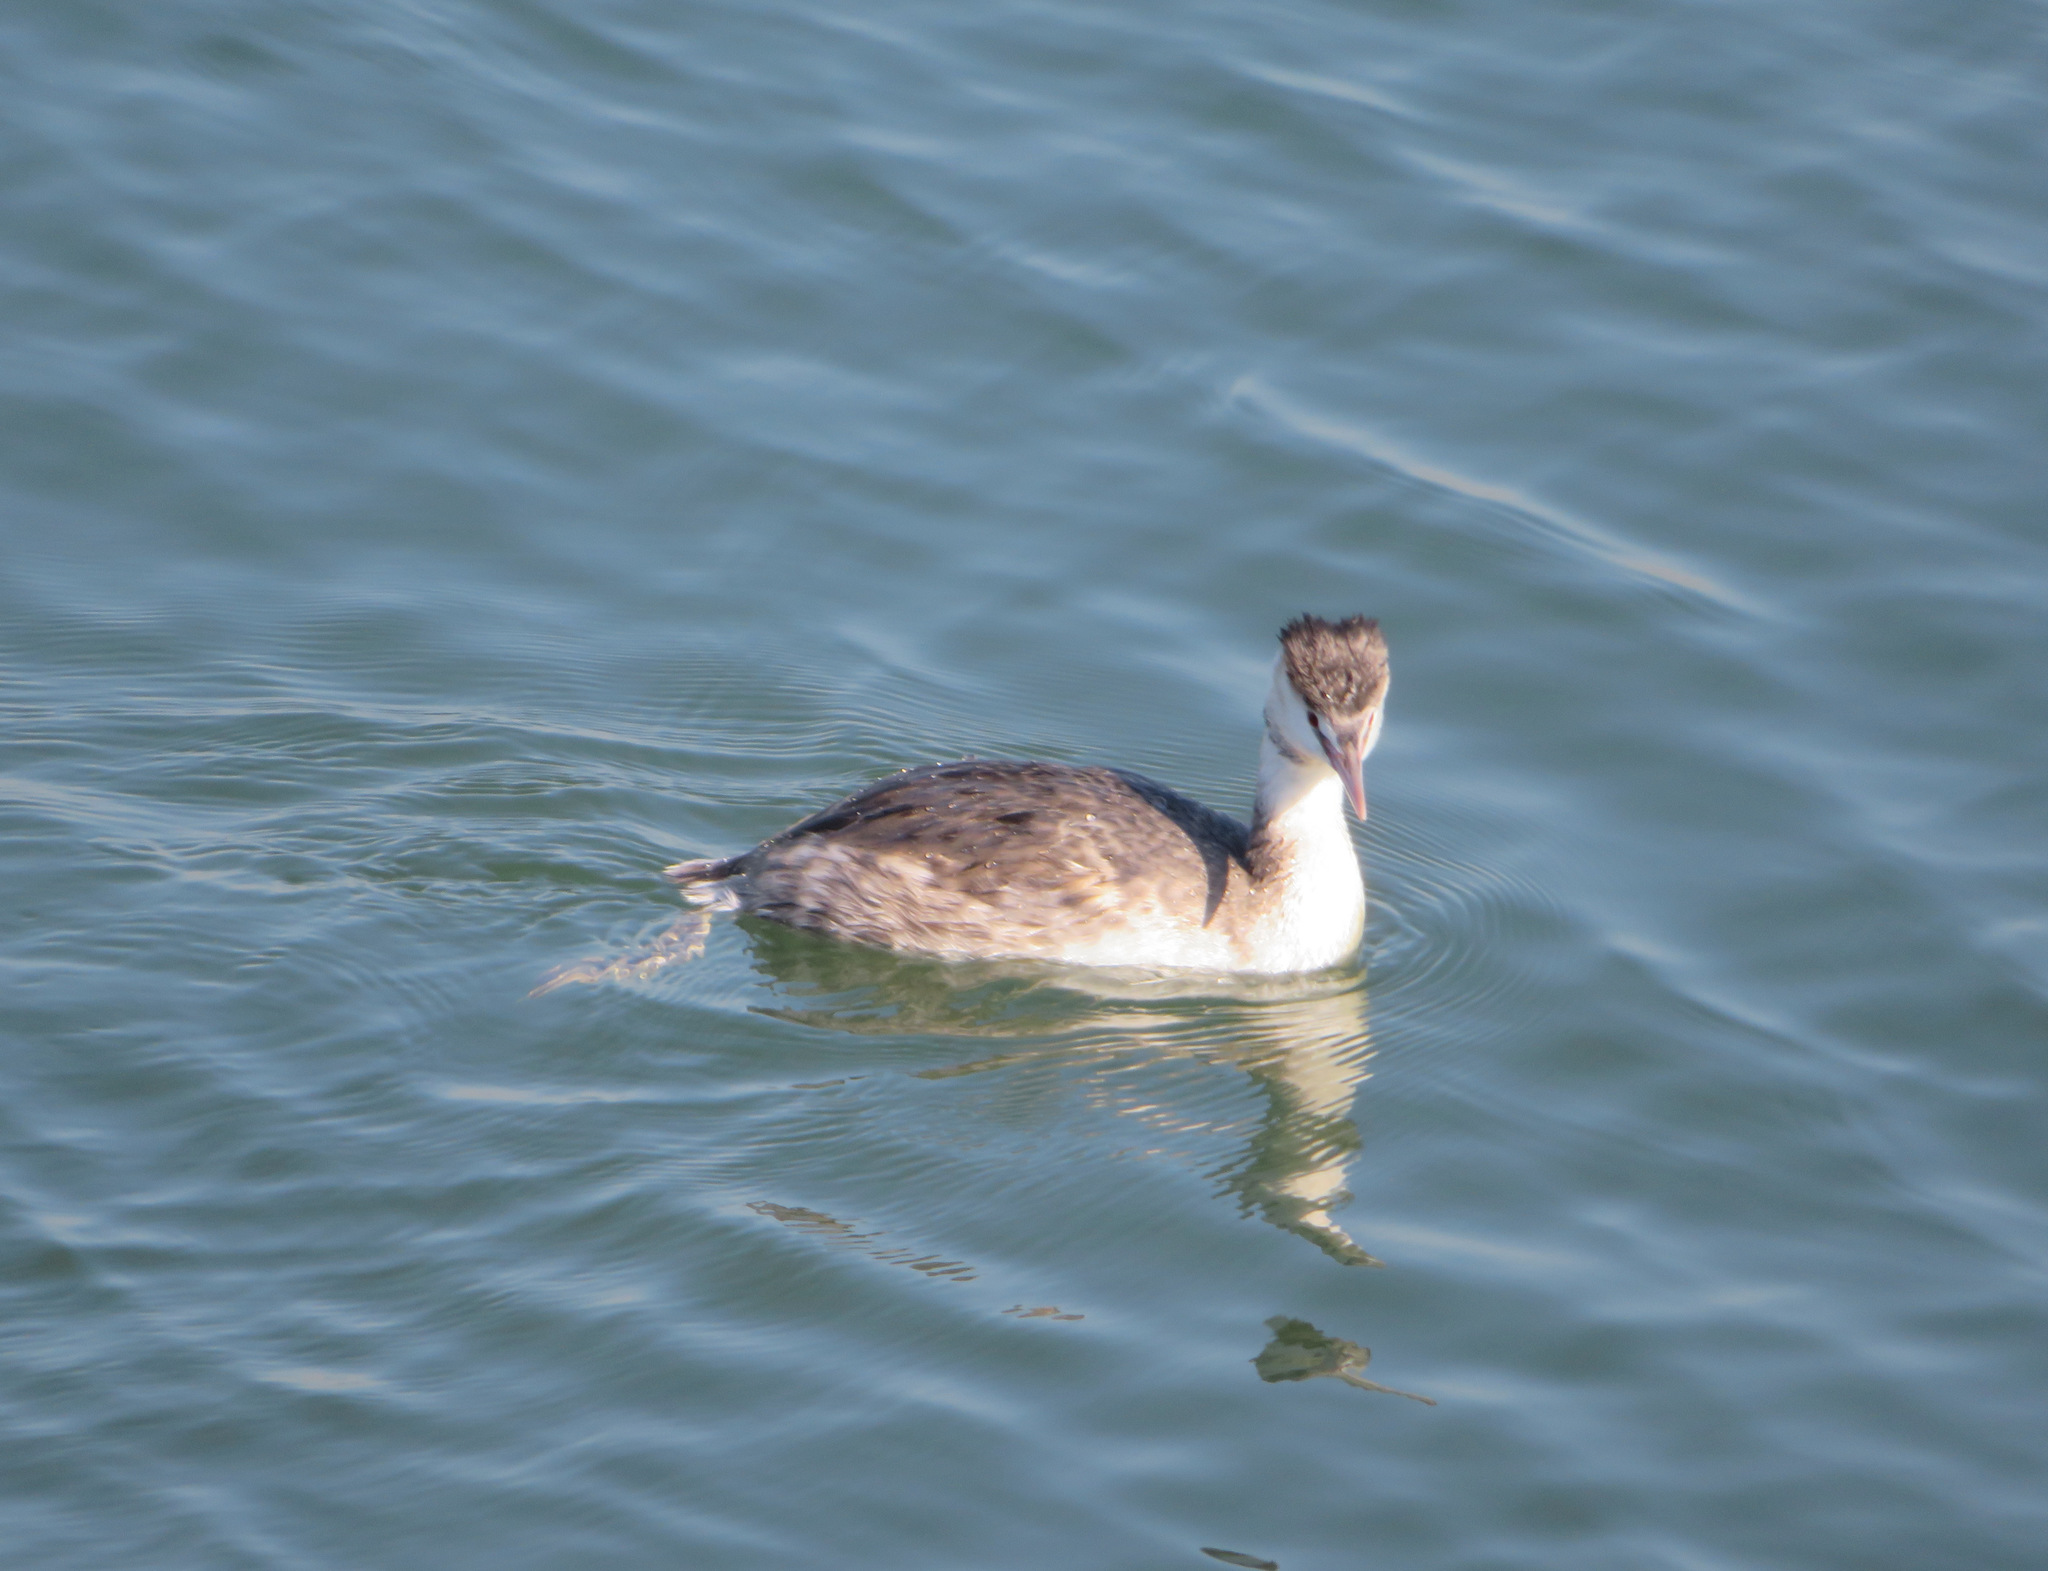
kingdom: Animalia
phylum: Chordata
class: Aves
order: Podicipediformes
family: Podicipedidae
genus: Podiceps
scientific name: Podiceps cristatus
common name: Great crested grebe
